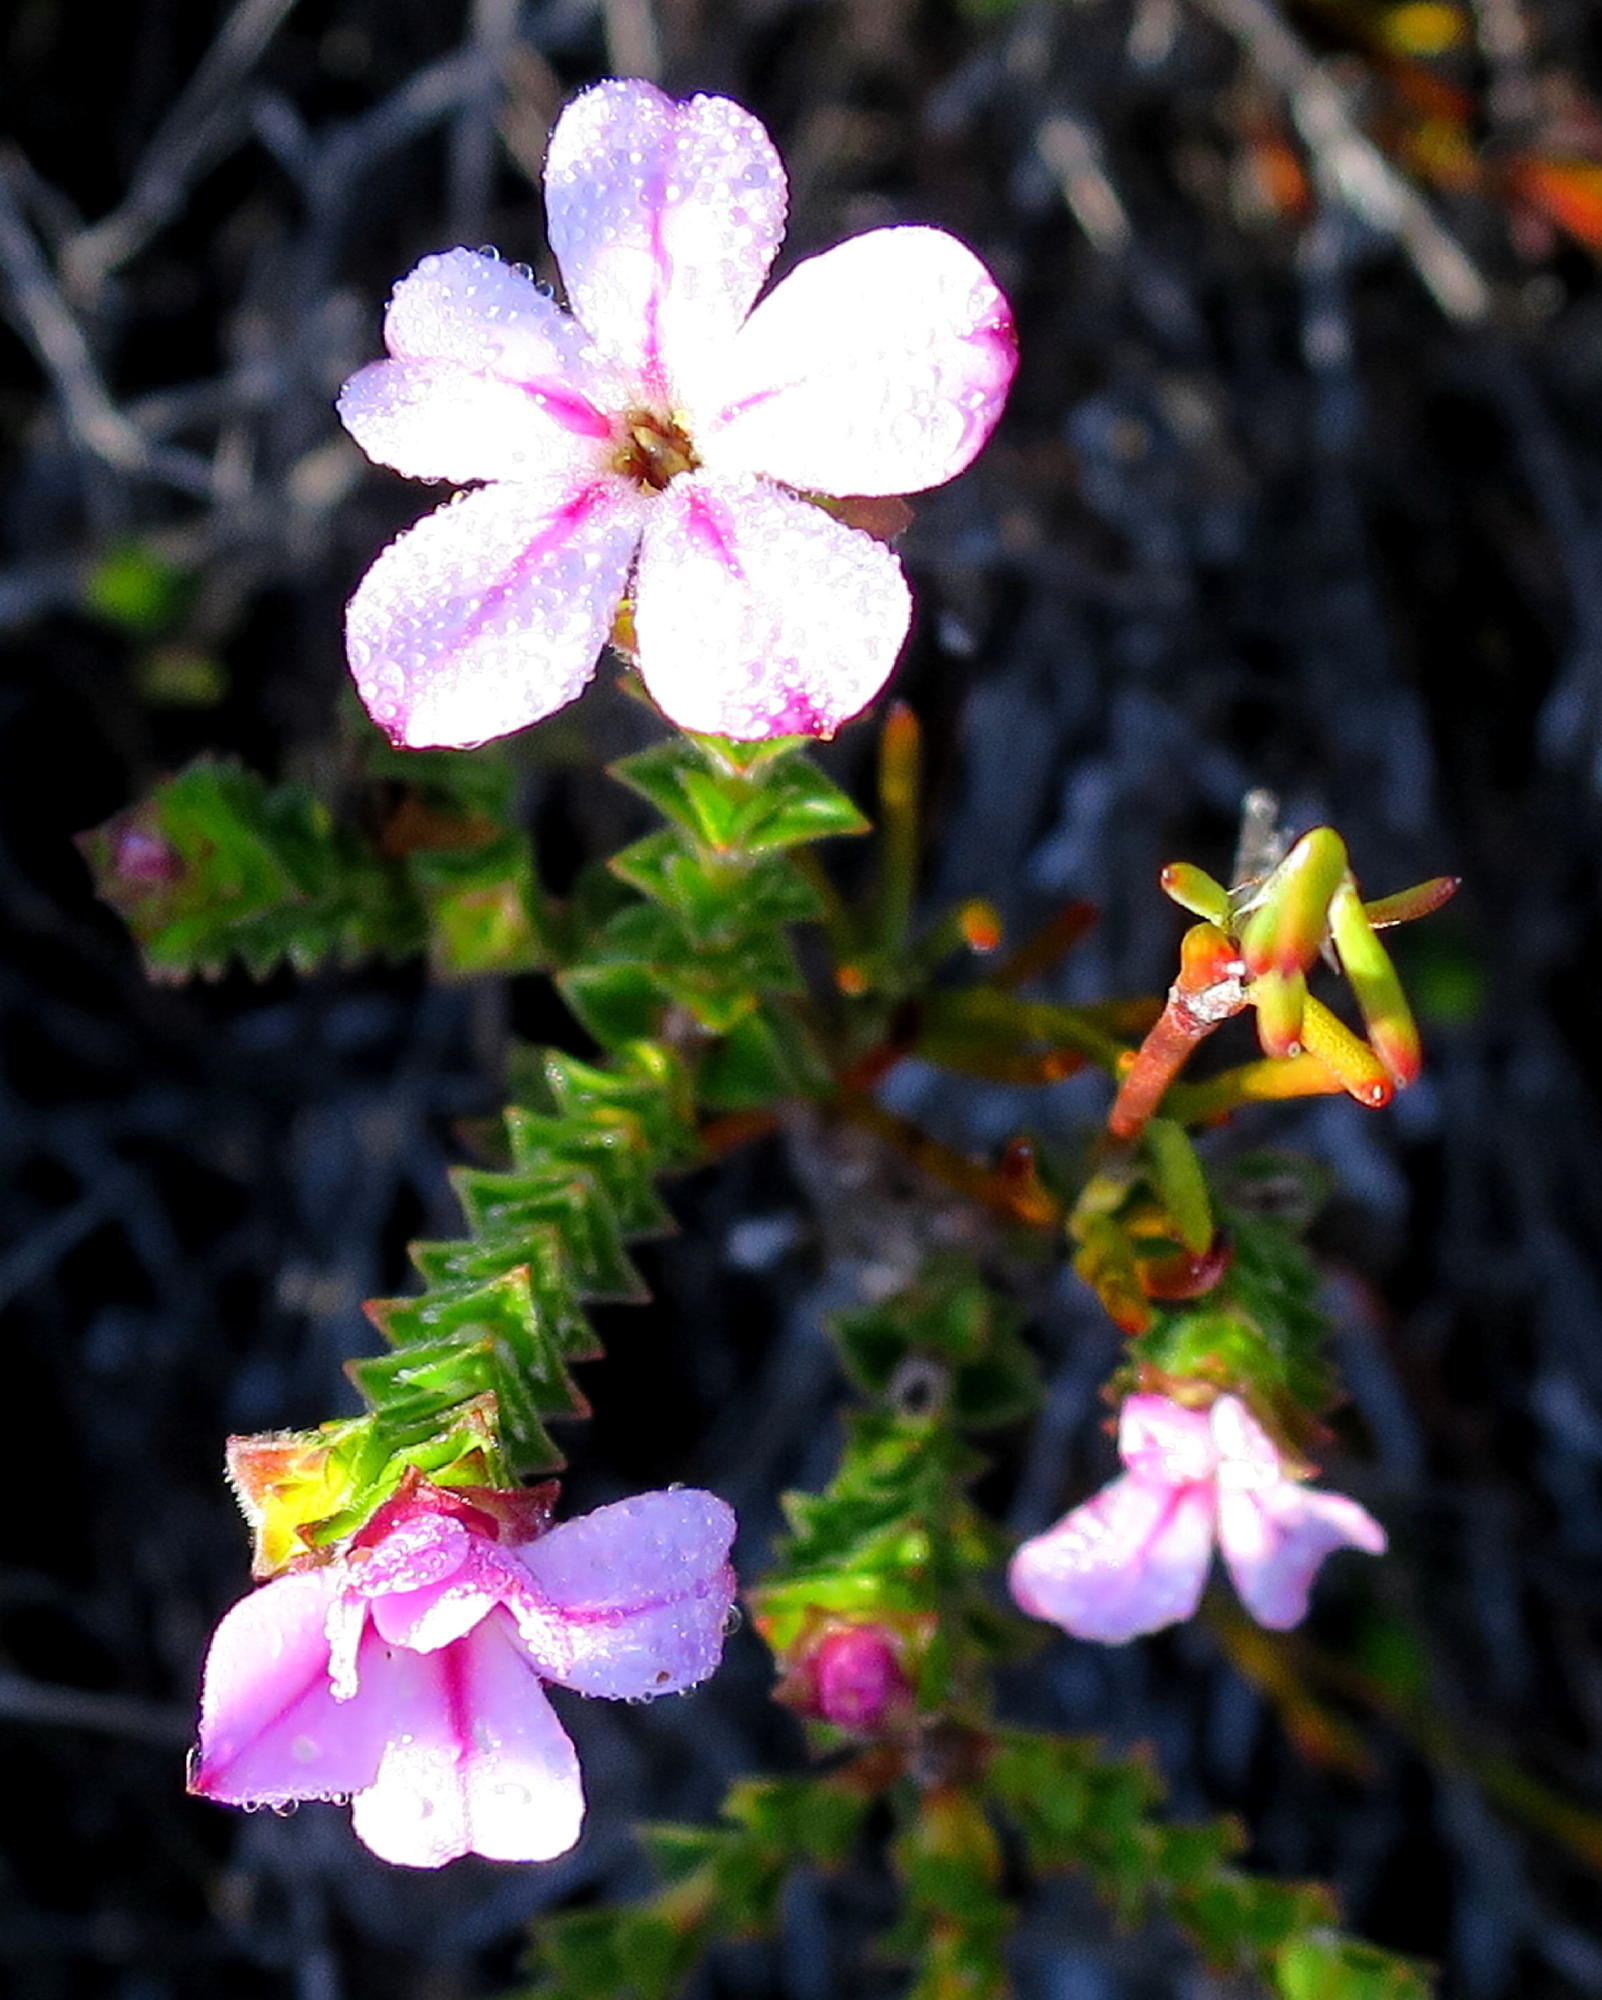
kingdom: Plantae
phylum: Tracheophyta
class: Magnoliopsida
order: Sapindales
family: Rutaceae
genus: Acmadenia
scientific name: Acmadenia tetragona
